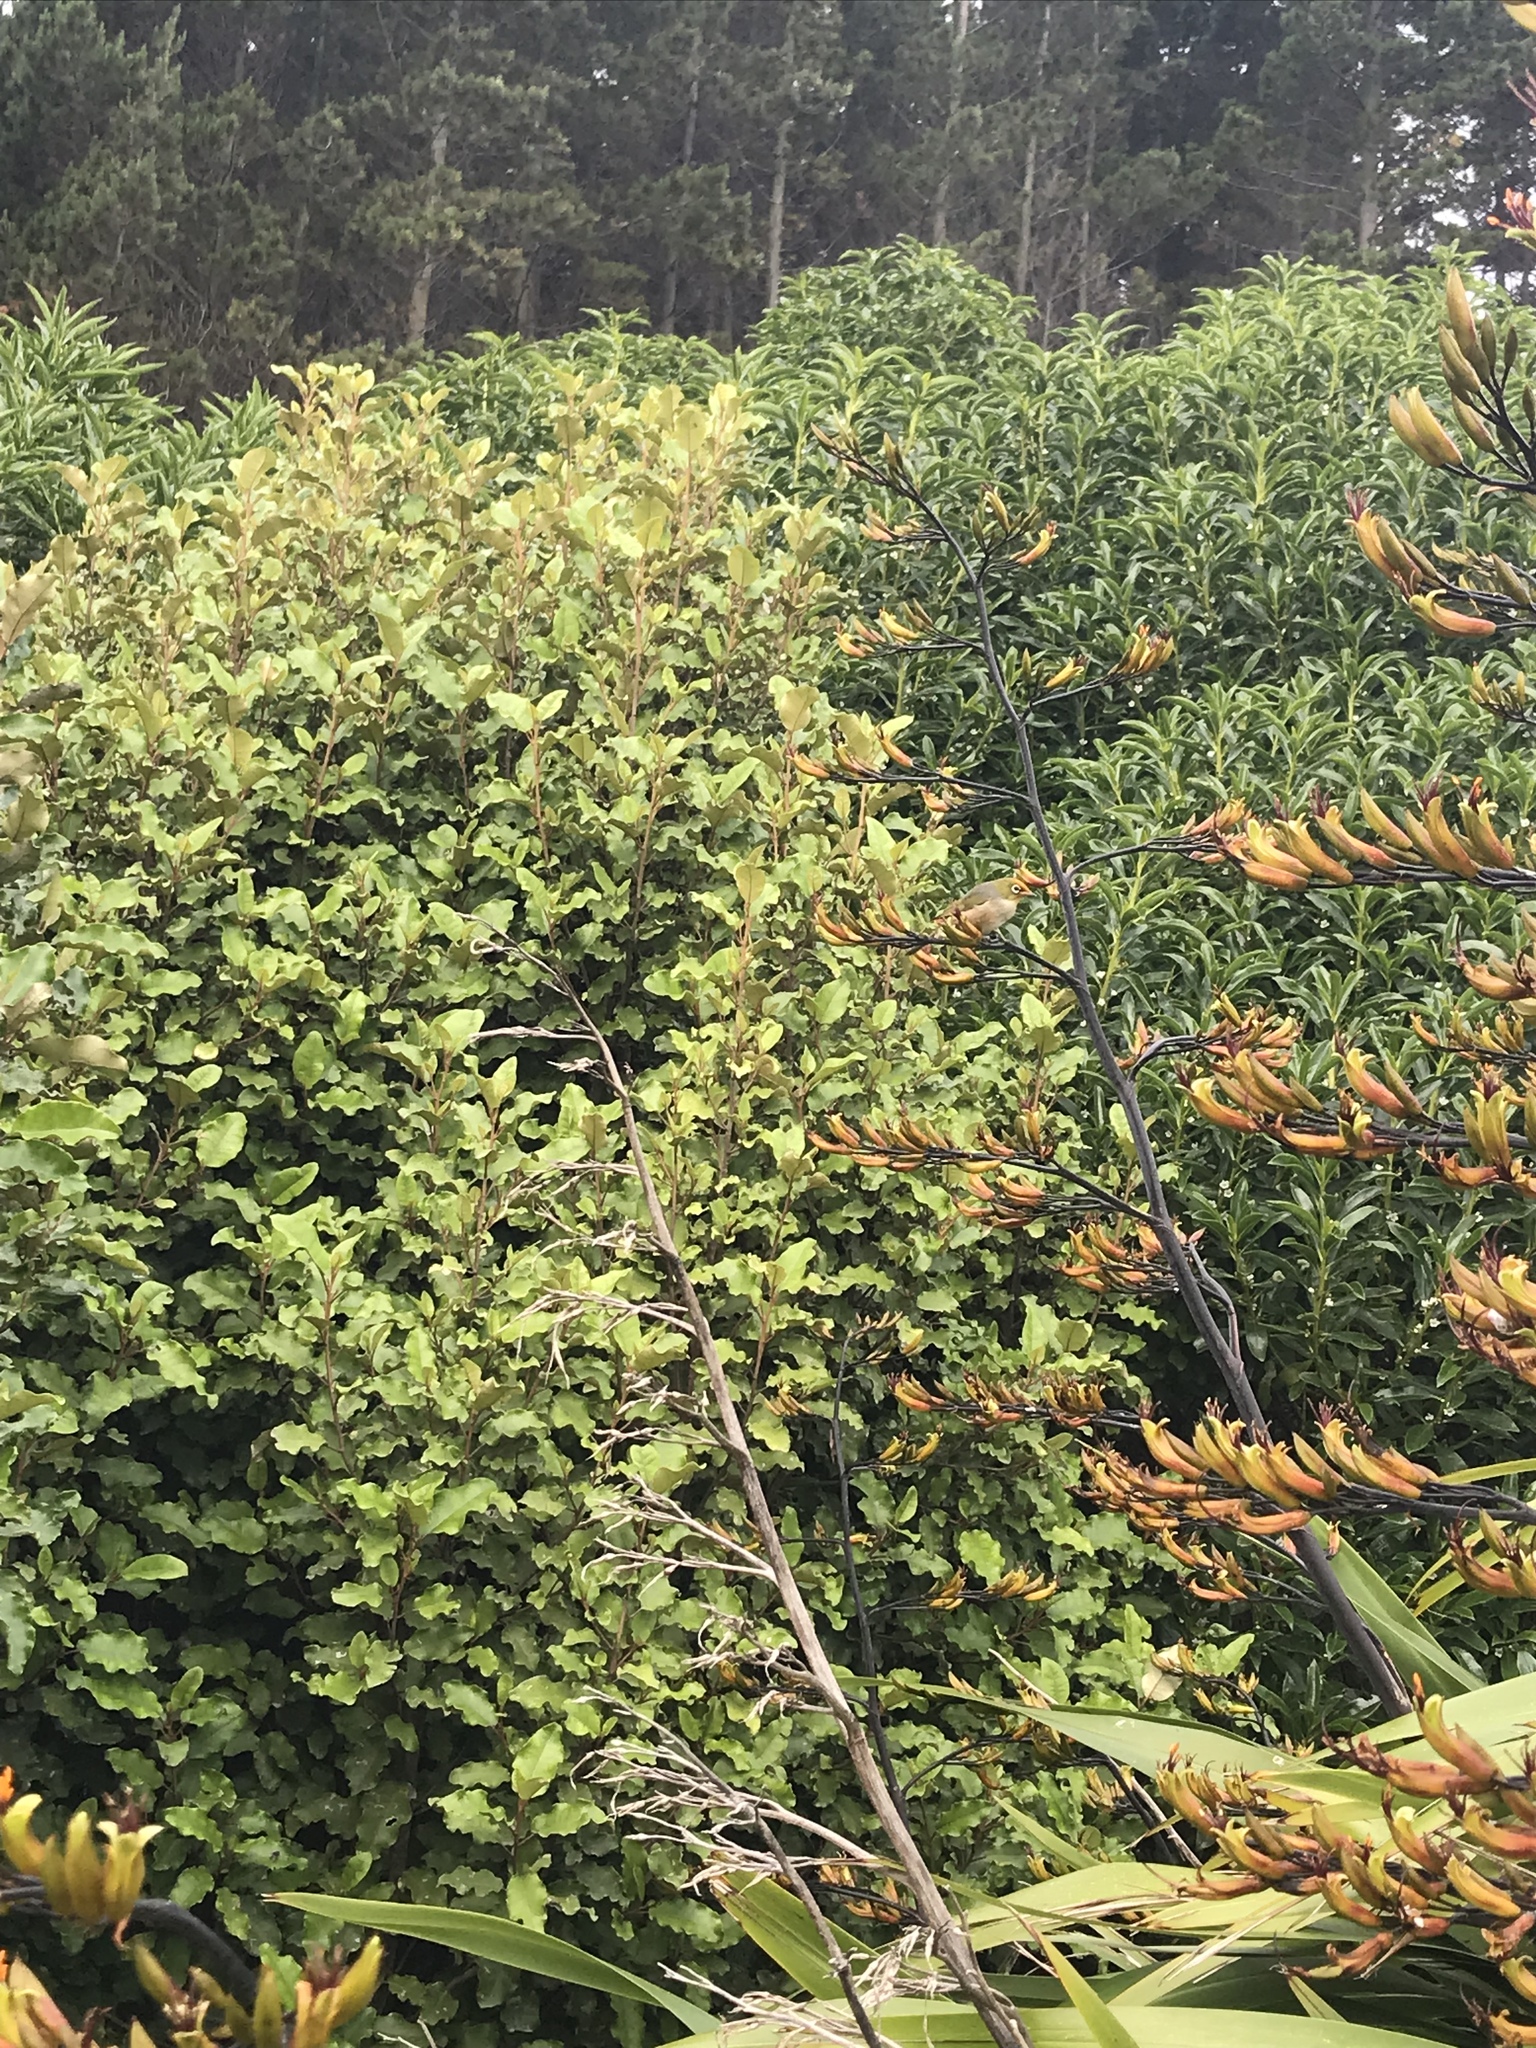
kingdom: Animalia
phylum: Chordata
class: Aves
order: Passeriformes
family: Zosteropidae
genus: Zosterops
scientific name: Zosterops lateralis
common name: Silvereye
